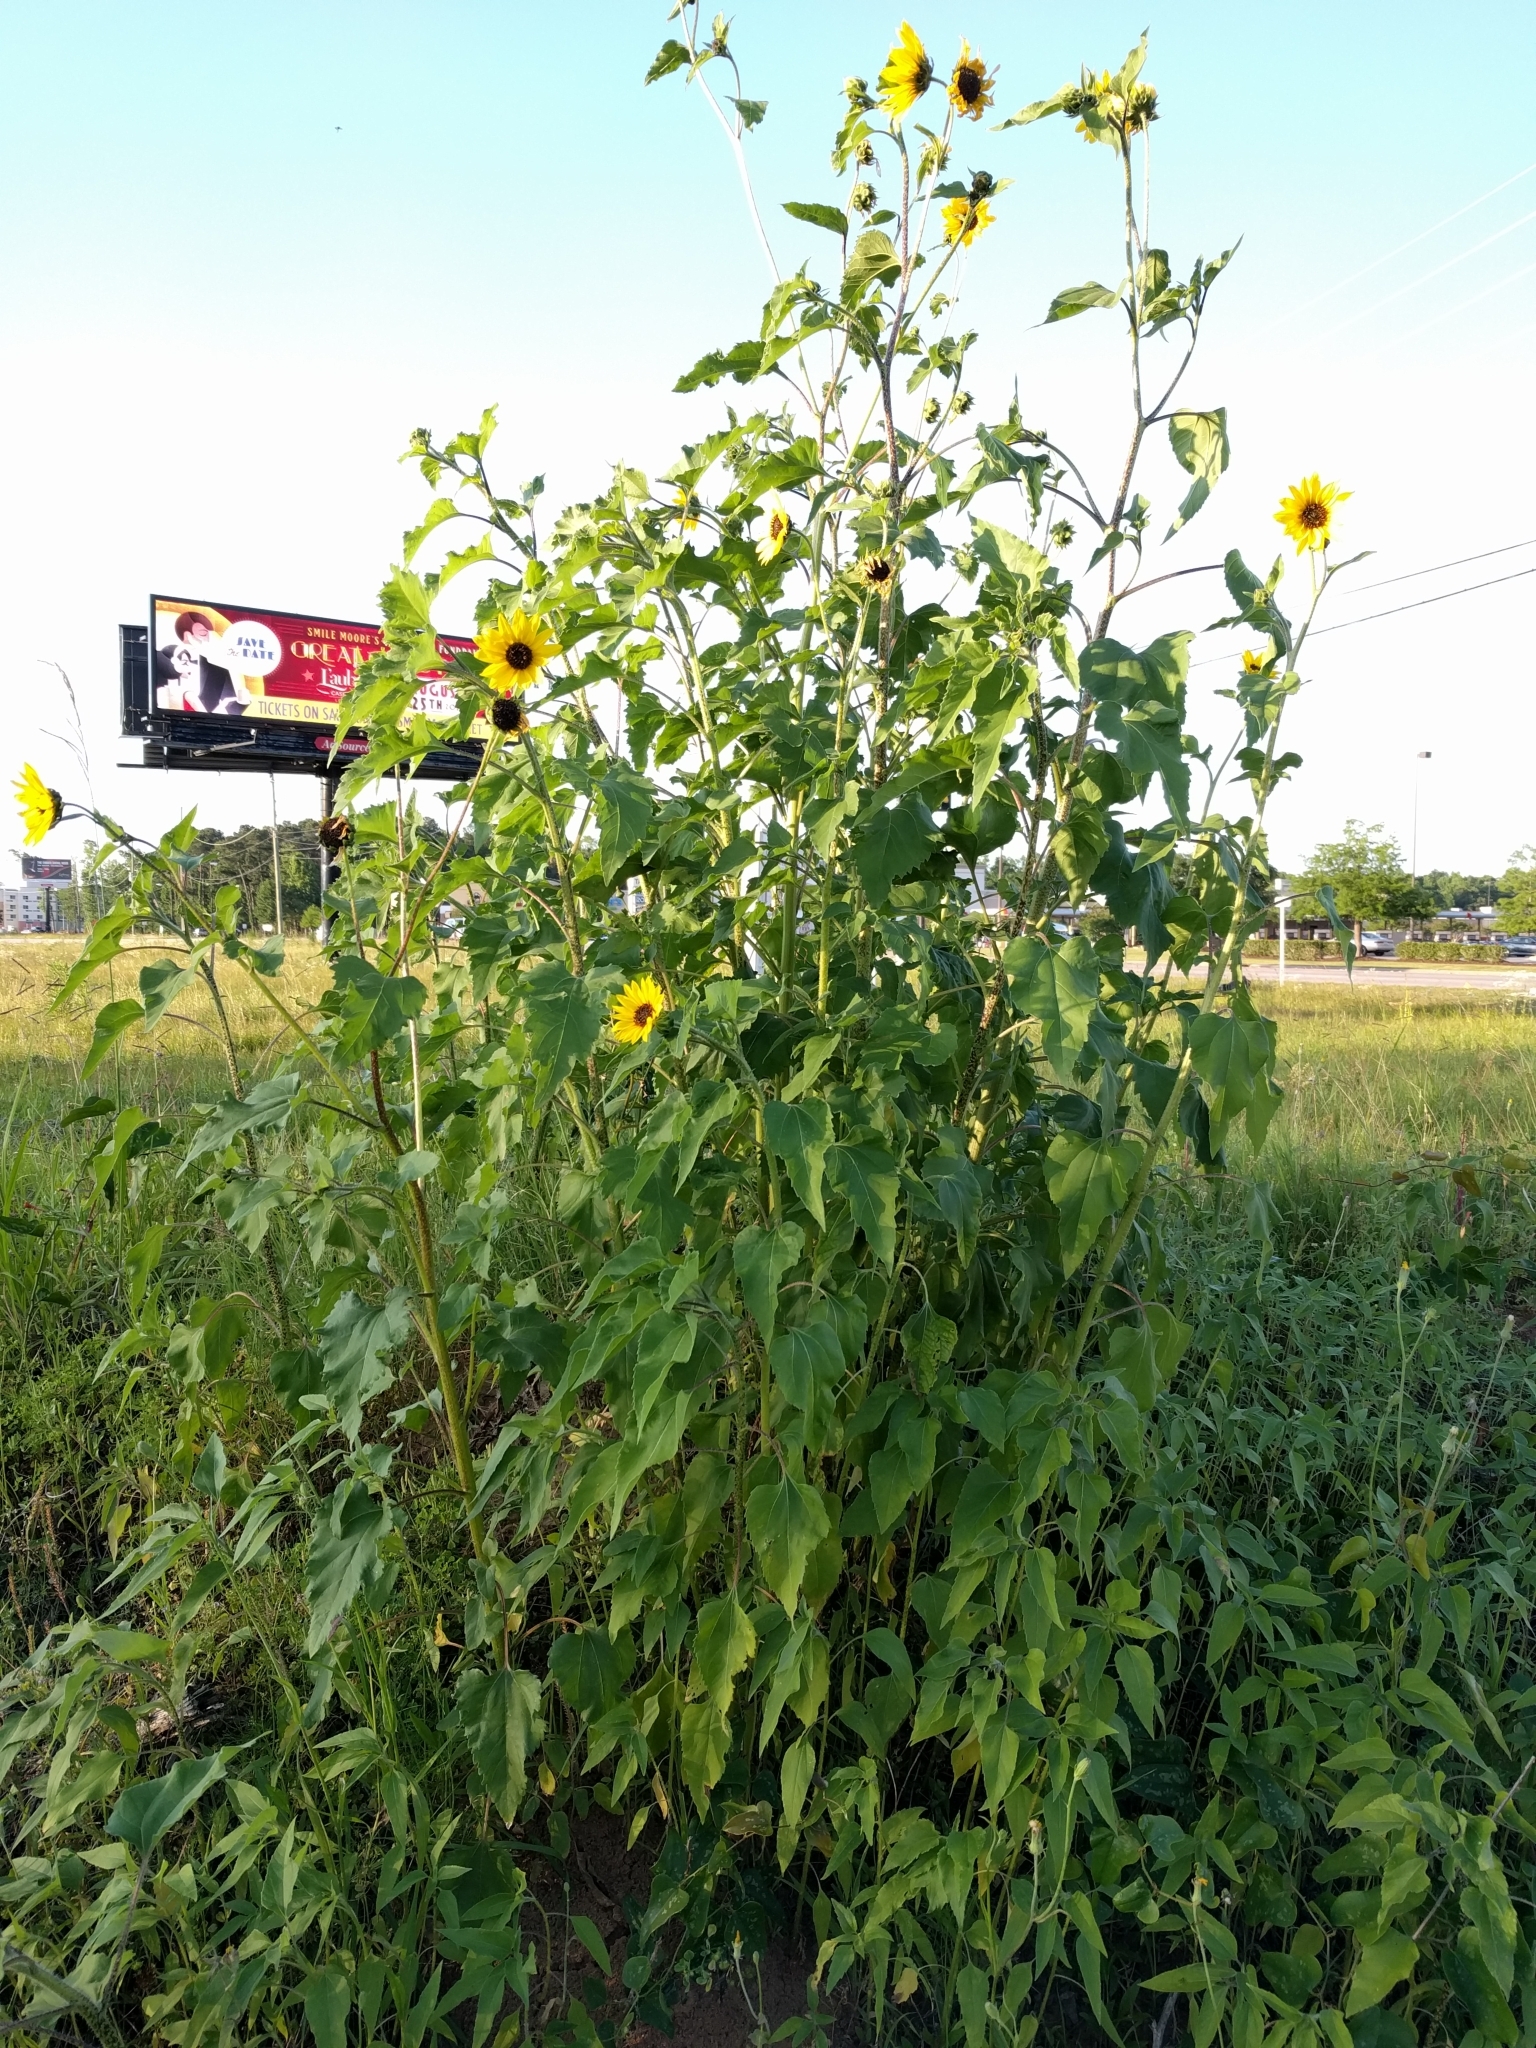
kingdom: Plantae
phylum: Tracheophyta
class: Magnoliopsida
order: Asterales
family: Asteraceae
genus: Helianthus
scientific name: Helianthus annuus
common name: Sunflower
